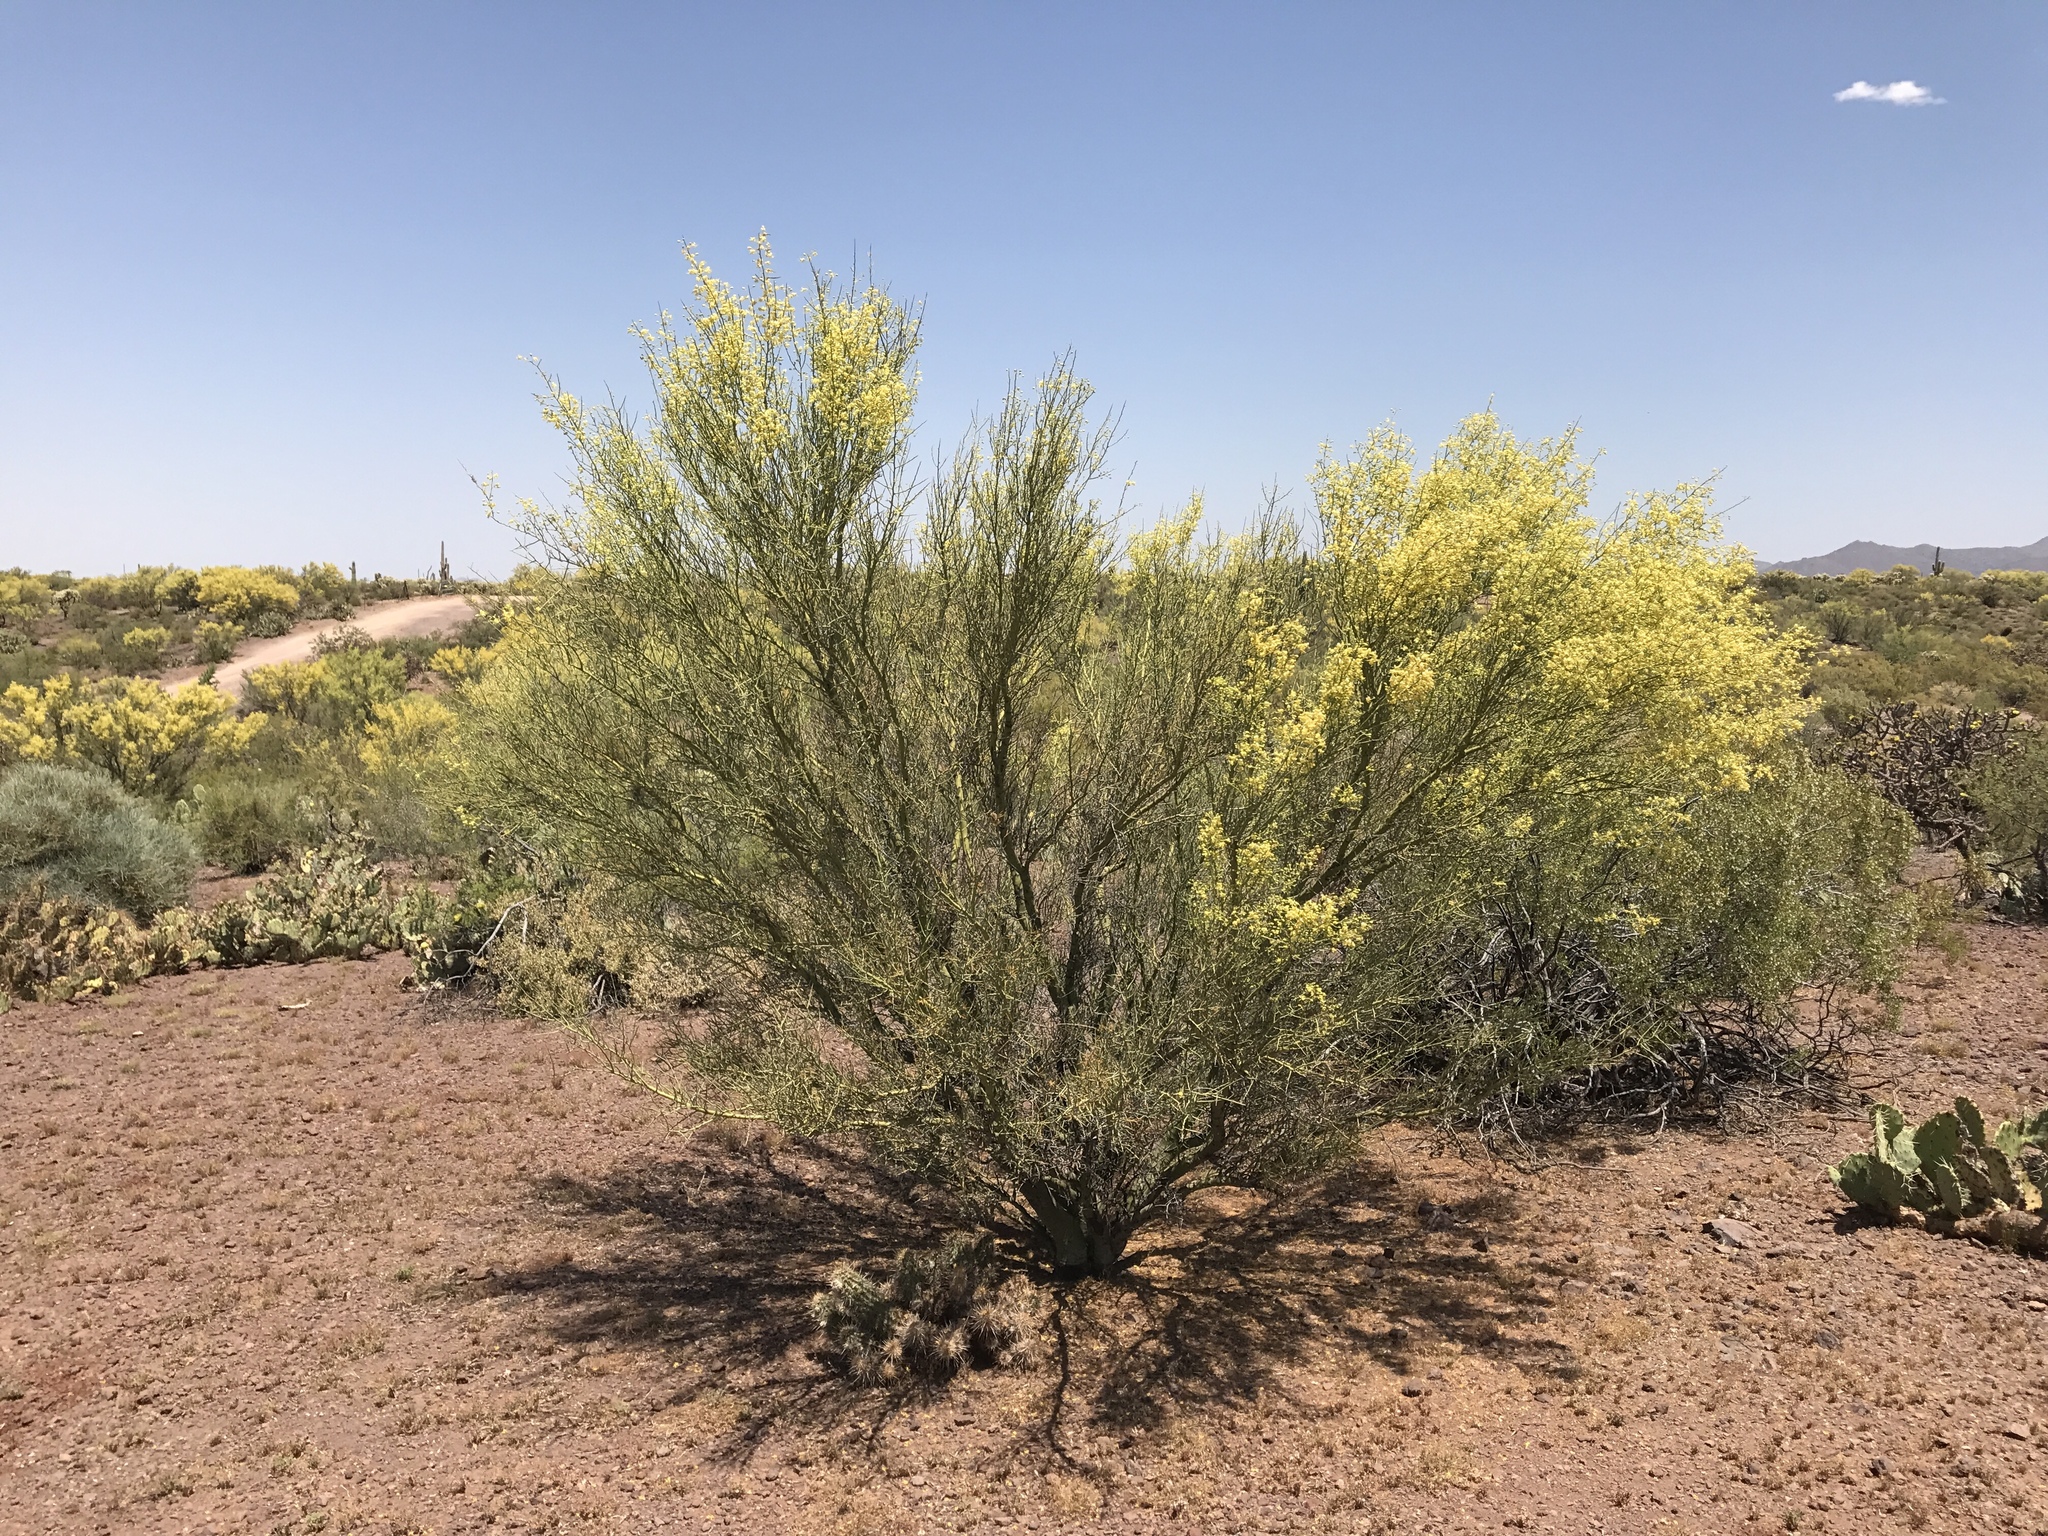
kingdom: Plantae
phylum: Tracheophyta
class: Magnoliopsida
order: Fabales
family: Fabaceae
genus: Parkinsonia
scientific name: Parkinsonia microphylla
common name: Yellow paloverde
